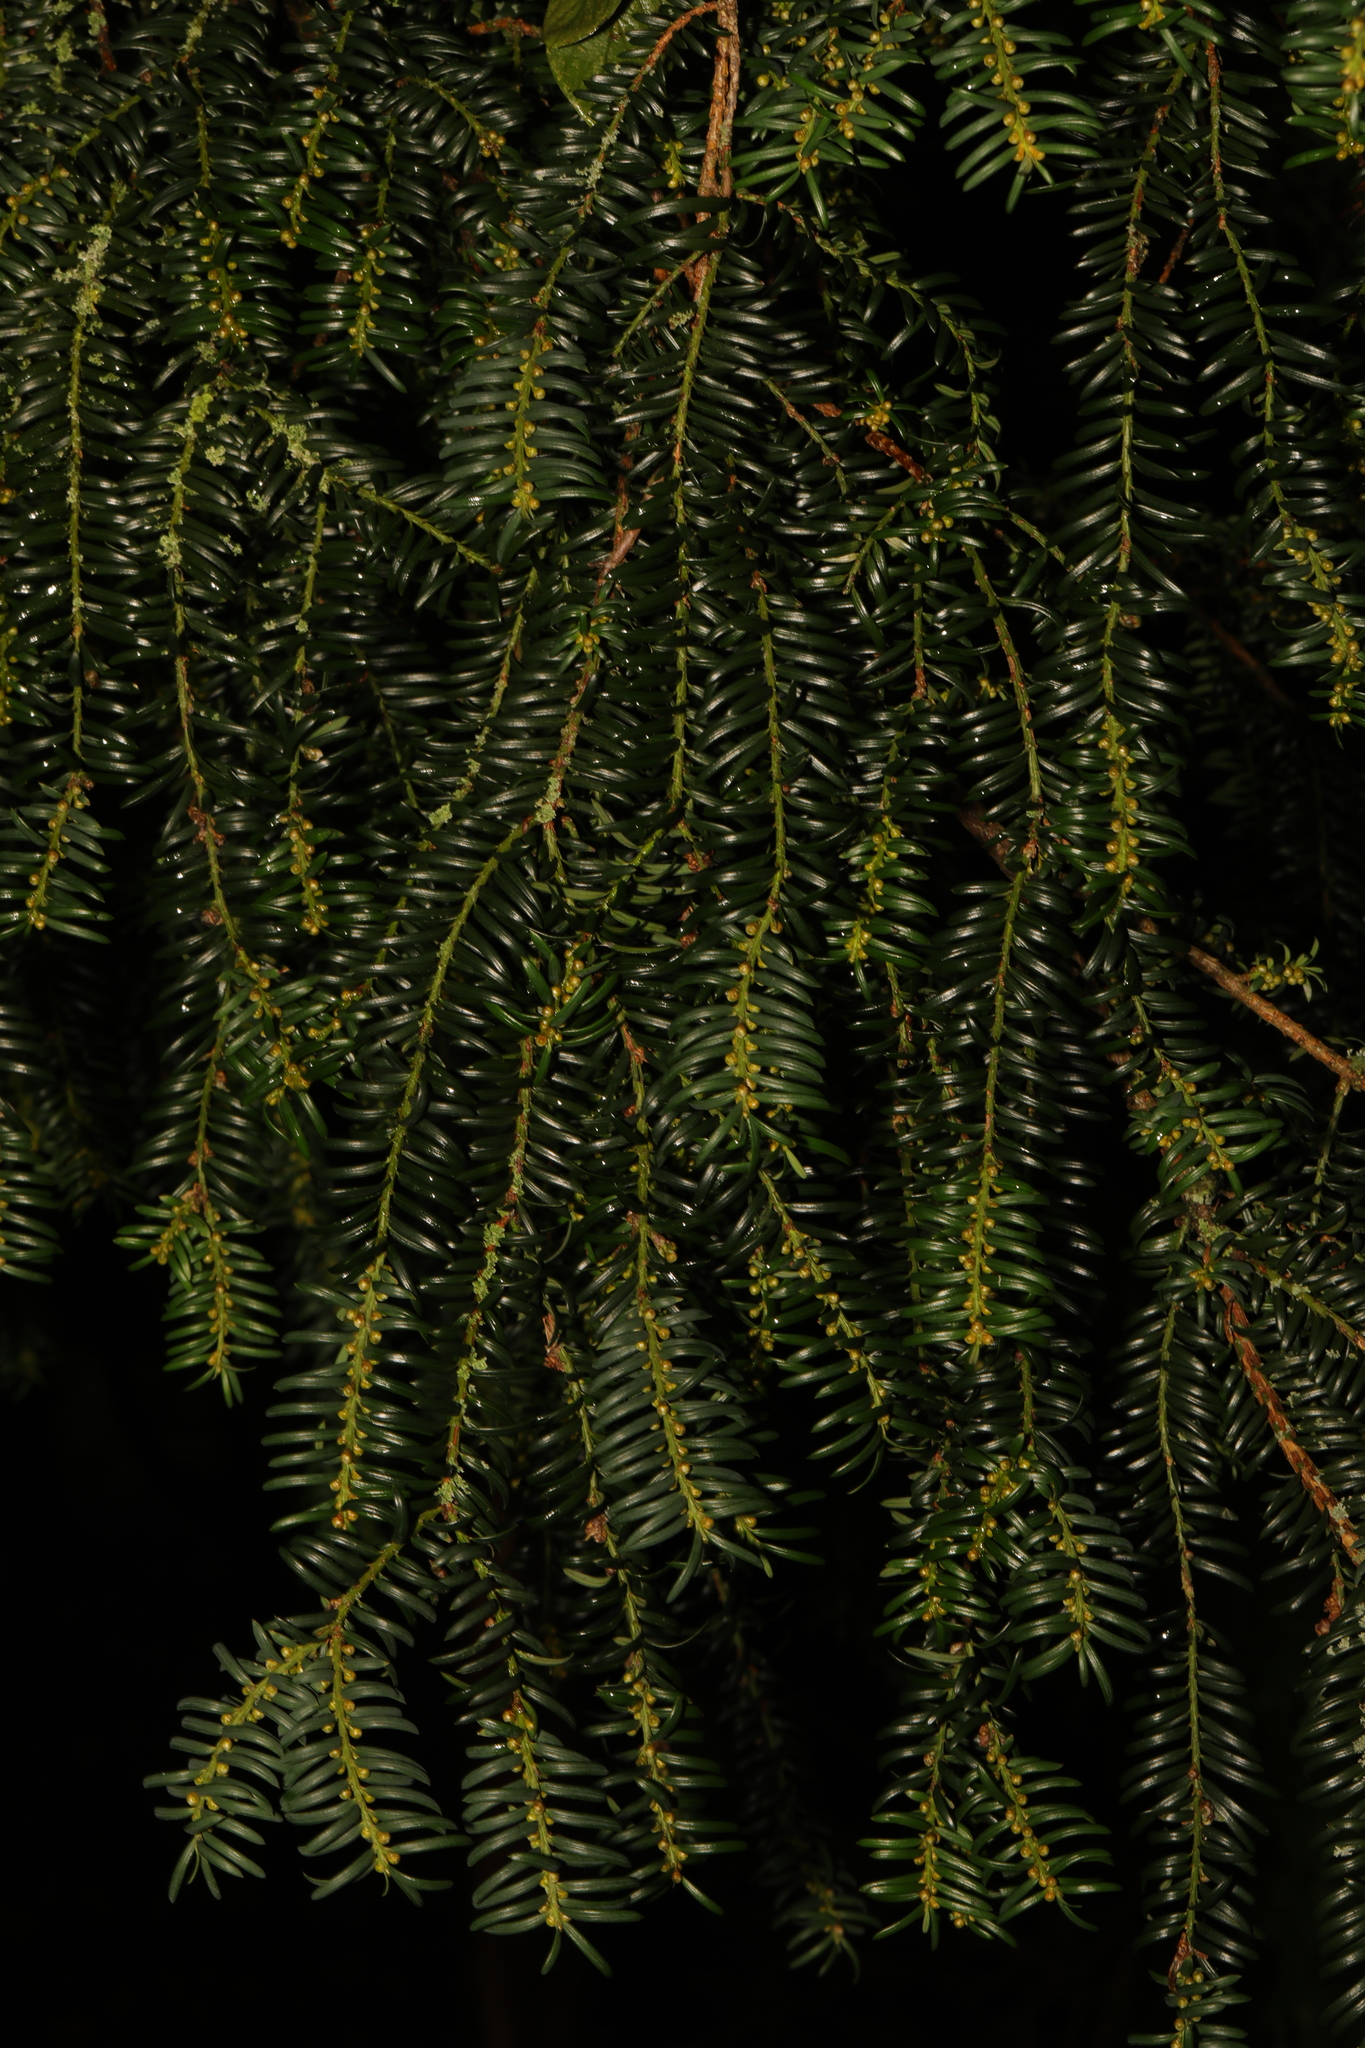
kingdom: Plantae
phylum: Tracheophyta
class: Pinopsida
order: Pinales
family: Taxaceae
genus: Taxus
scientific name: Taxus baccata
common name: Yew
